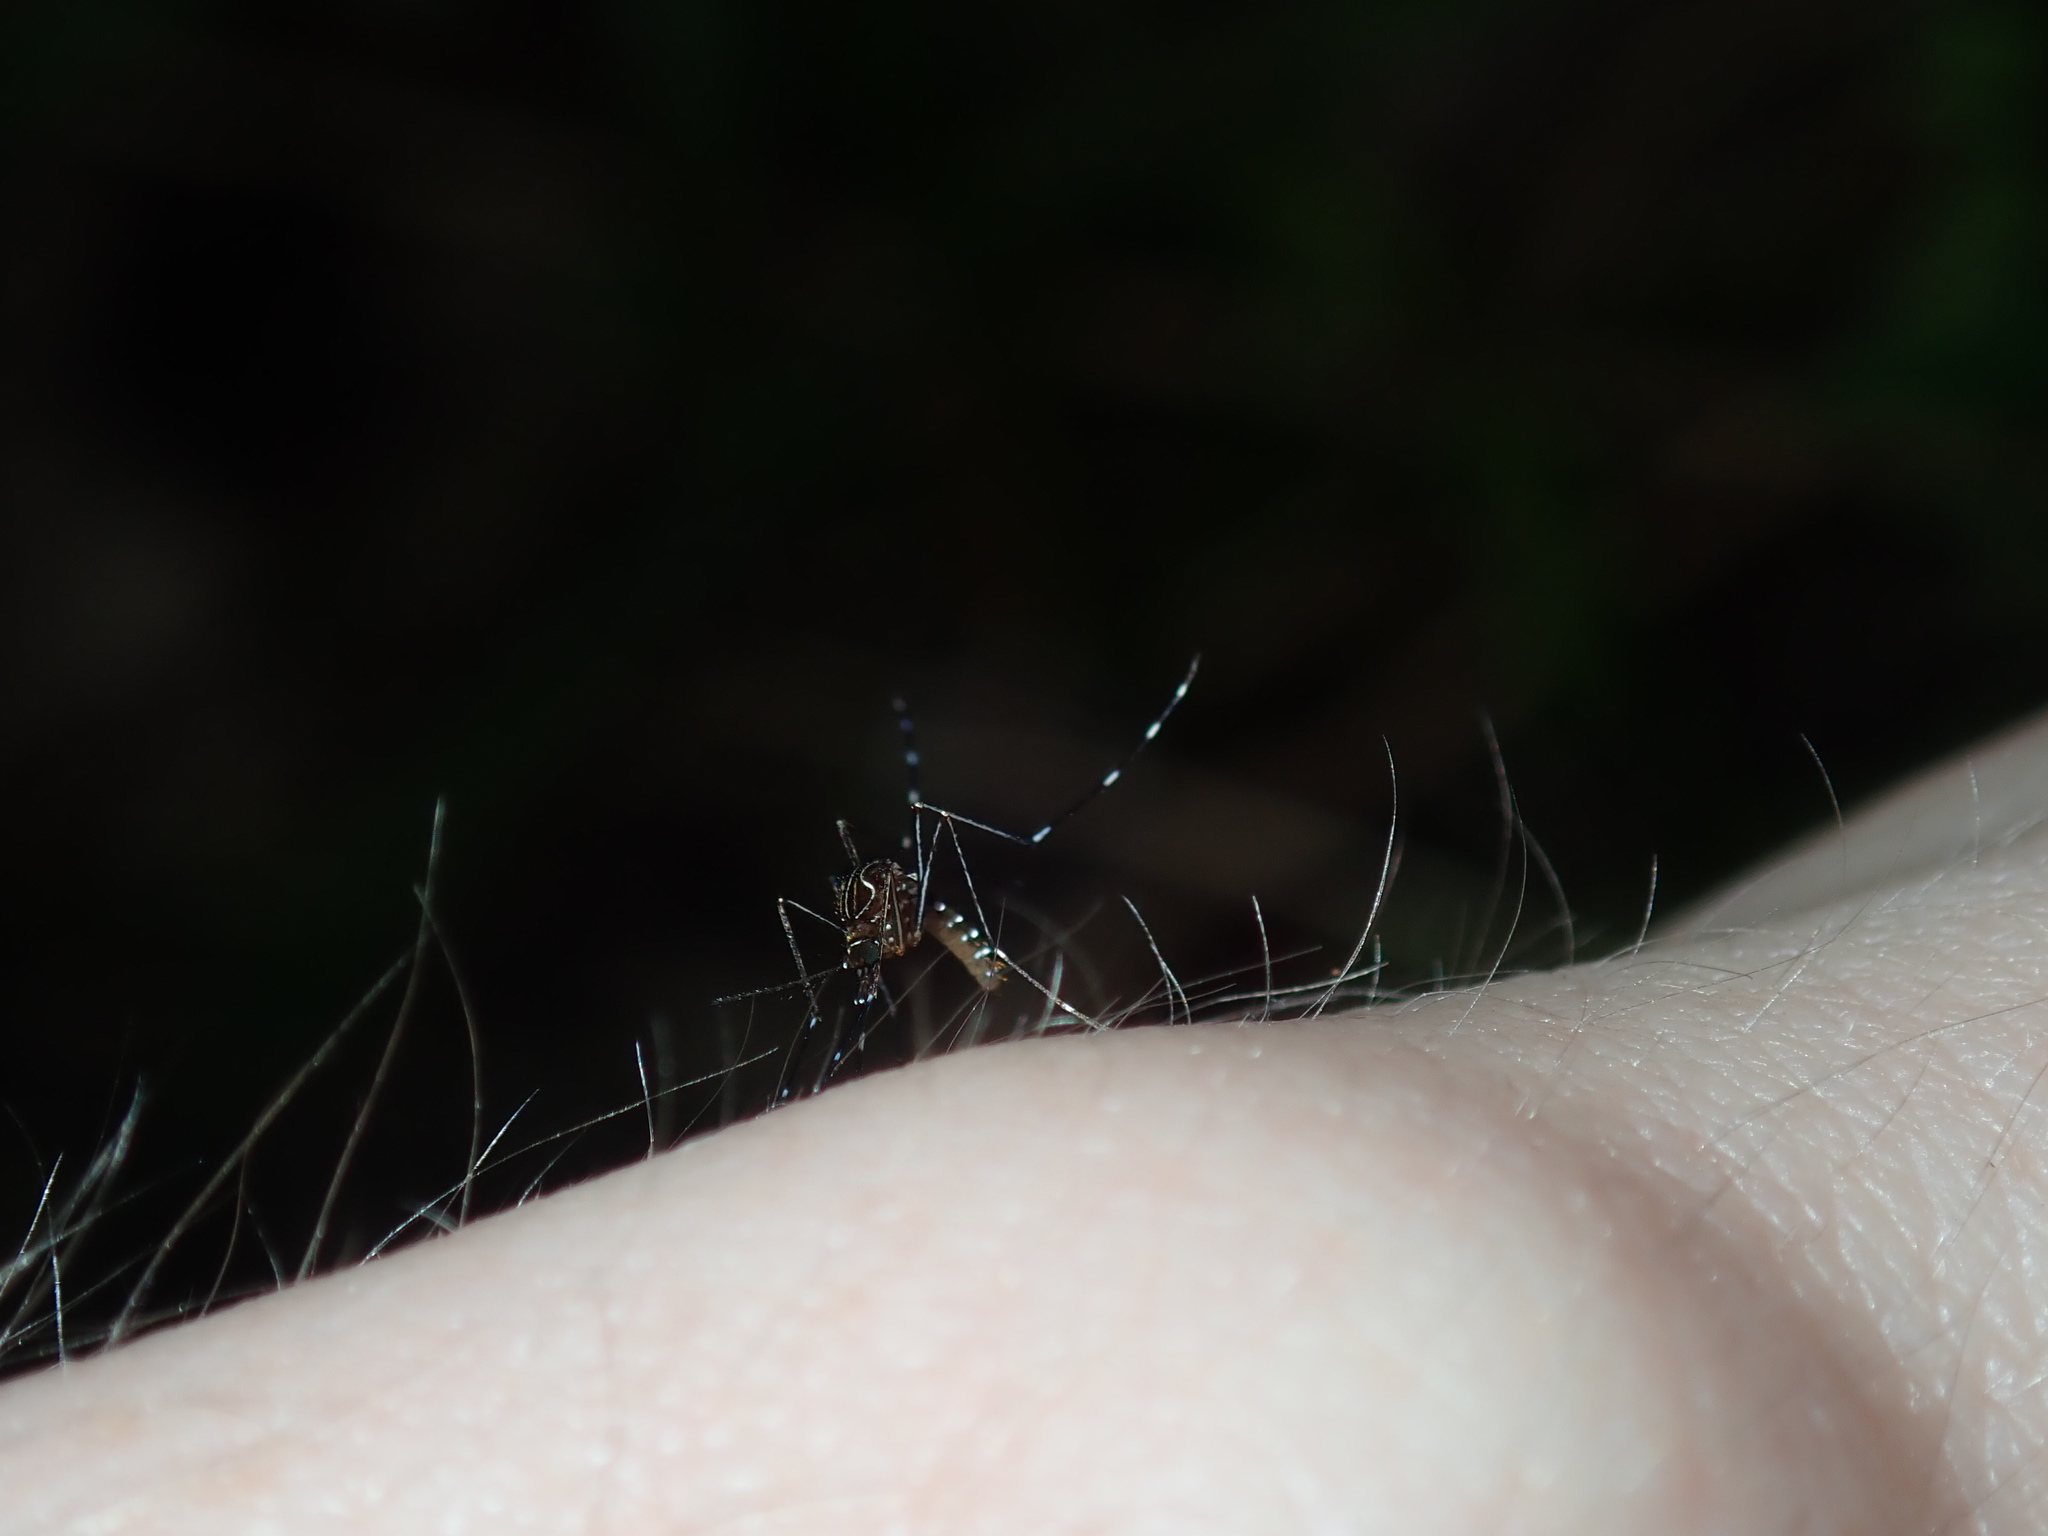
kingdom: Animalia
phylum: Arthropoda
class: Insecta
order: Diptera
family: Culicidae
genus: Aedes
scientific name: Aedes notoscriptus
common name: Australian backyard mosquito
